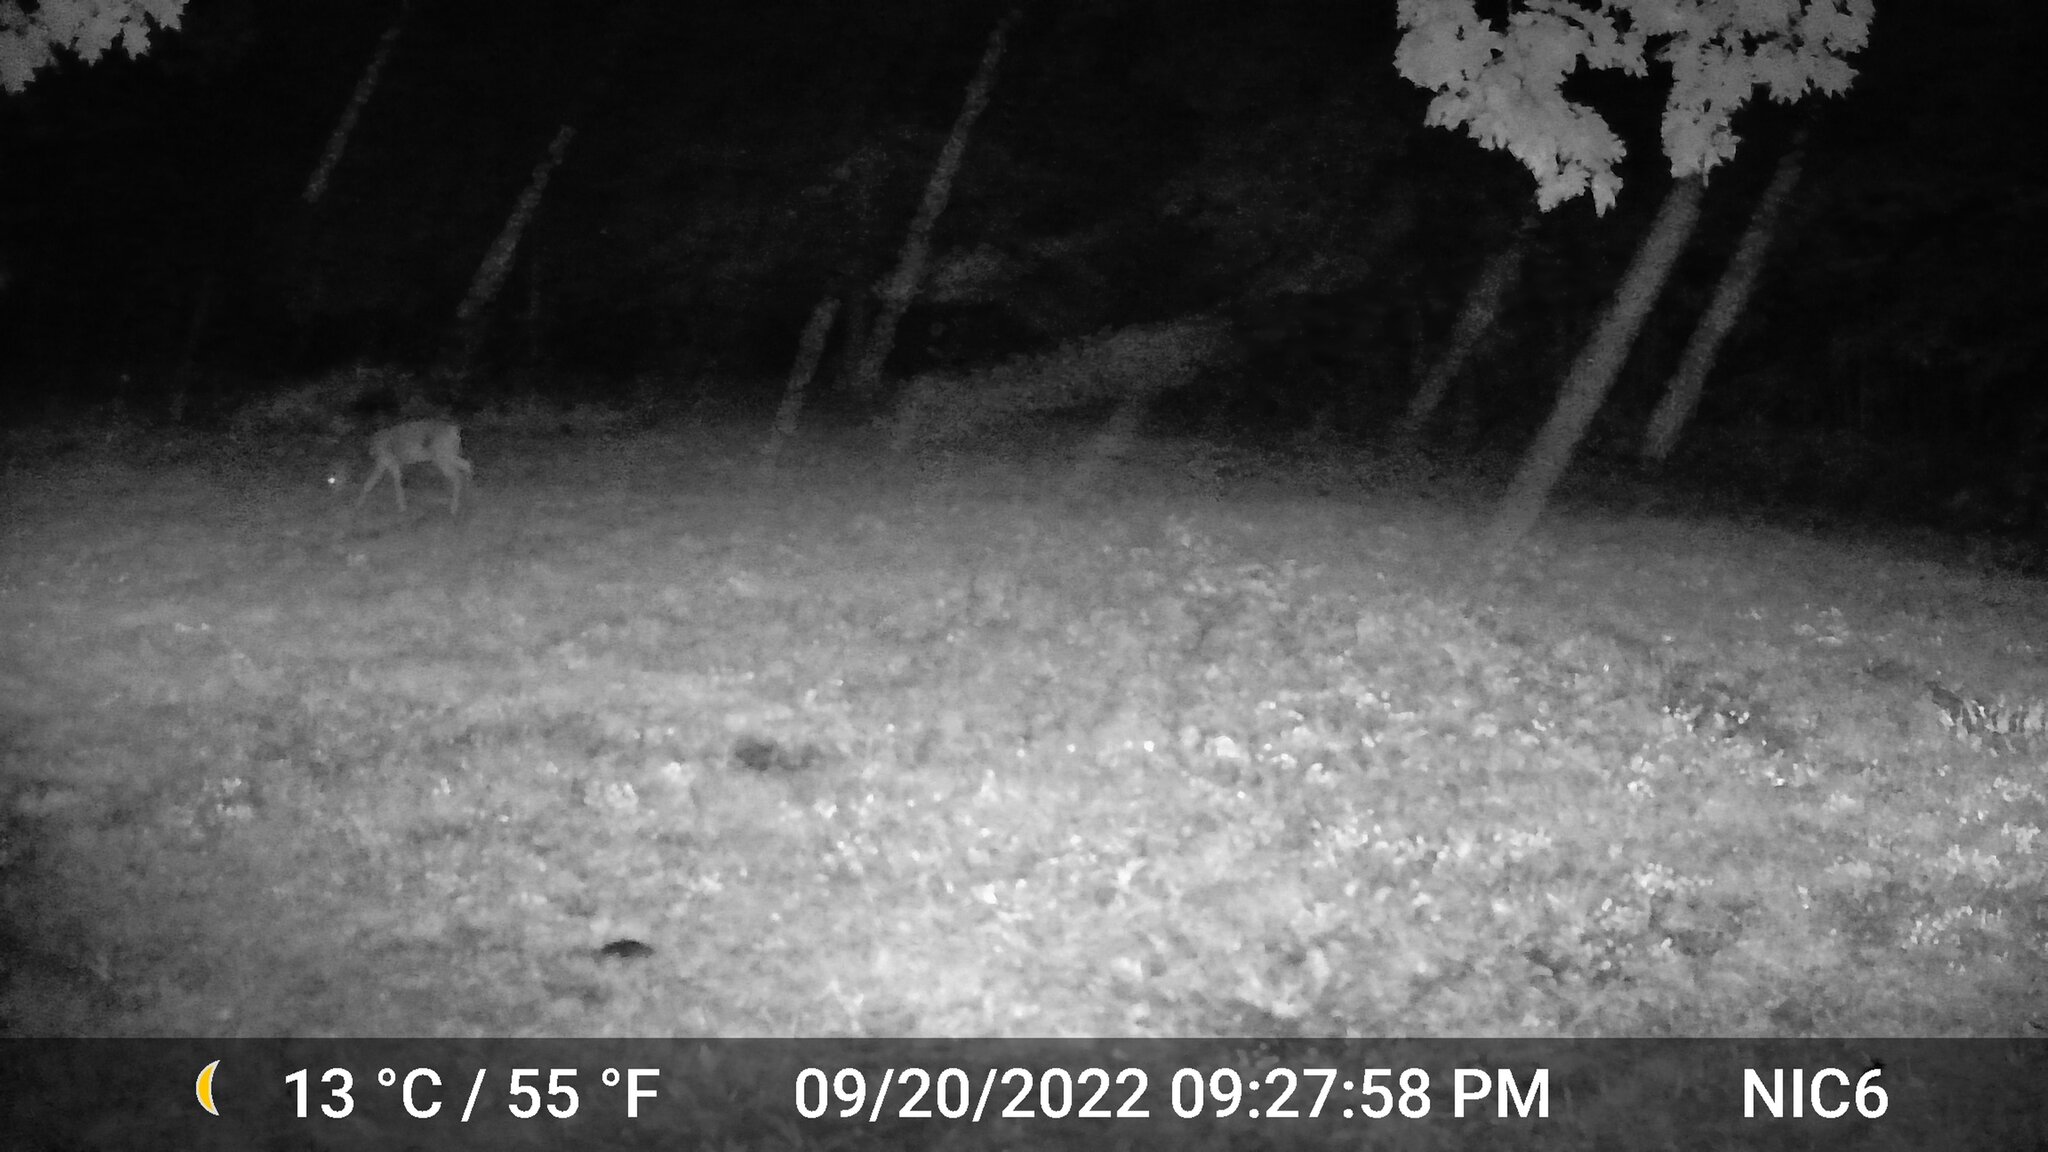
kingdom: Animalia
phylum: Chordata
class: Mammalia
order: Artiodactyla
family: Cervidae
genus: Odocoileus
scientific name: Odocoileus virginianus
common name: White-tailed deer
